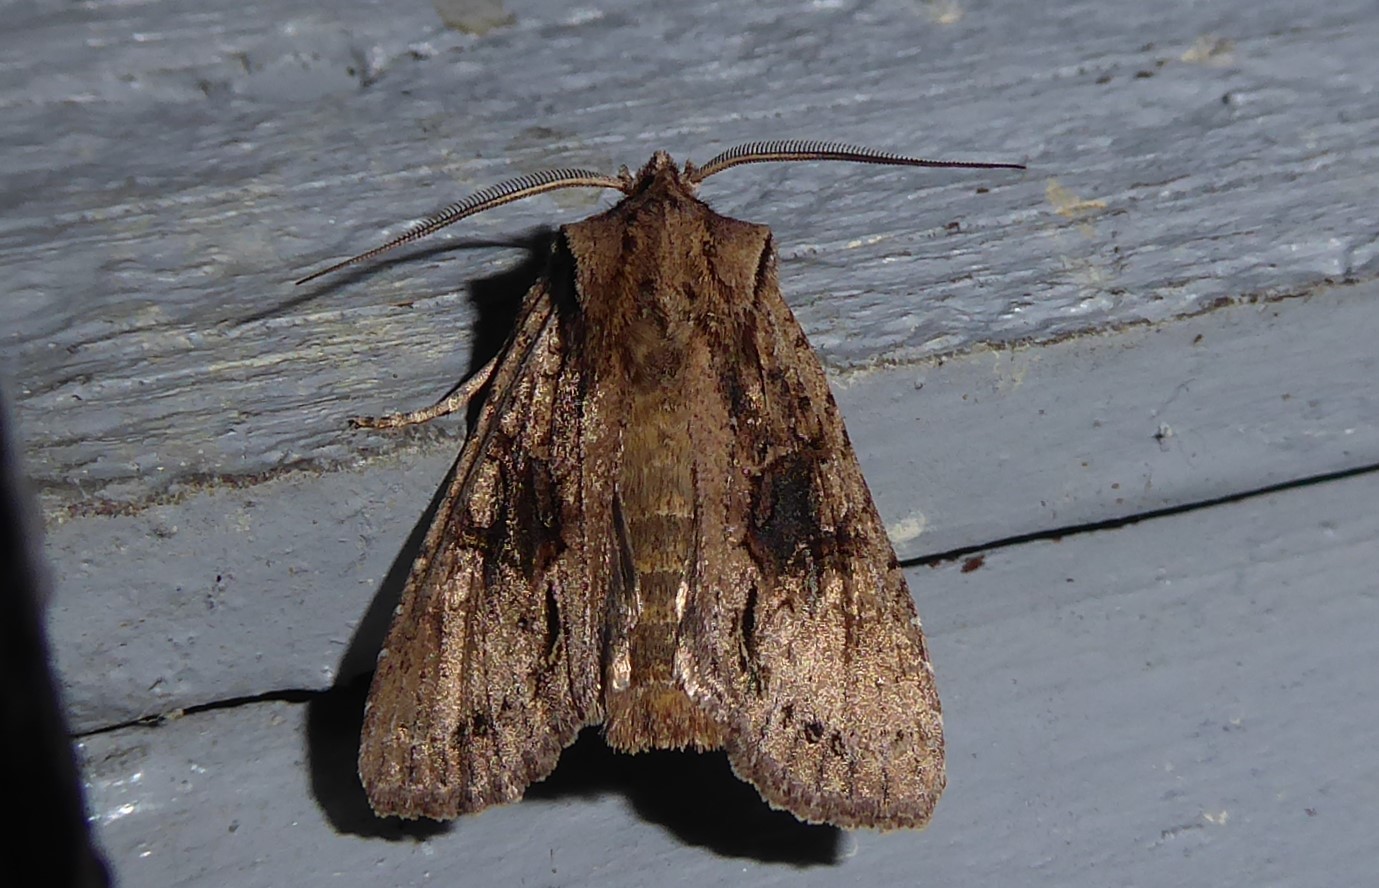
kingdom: Animalia
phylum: Arthropoda
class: Insecta
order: Lepidoptera
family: Noctuidae
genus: Ichneutica
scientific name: Ichneutica
